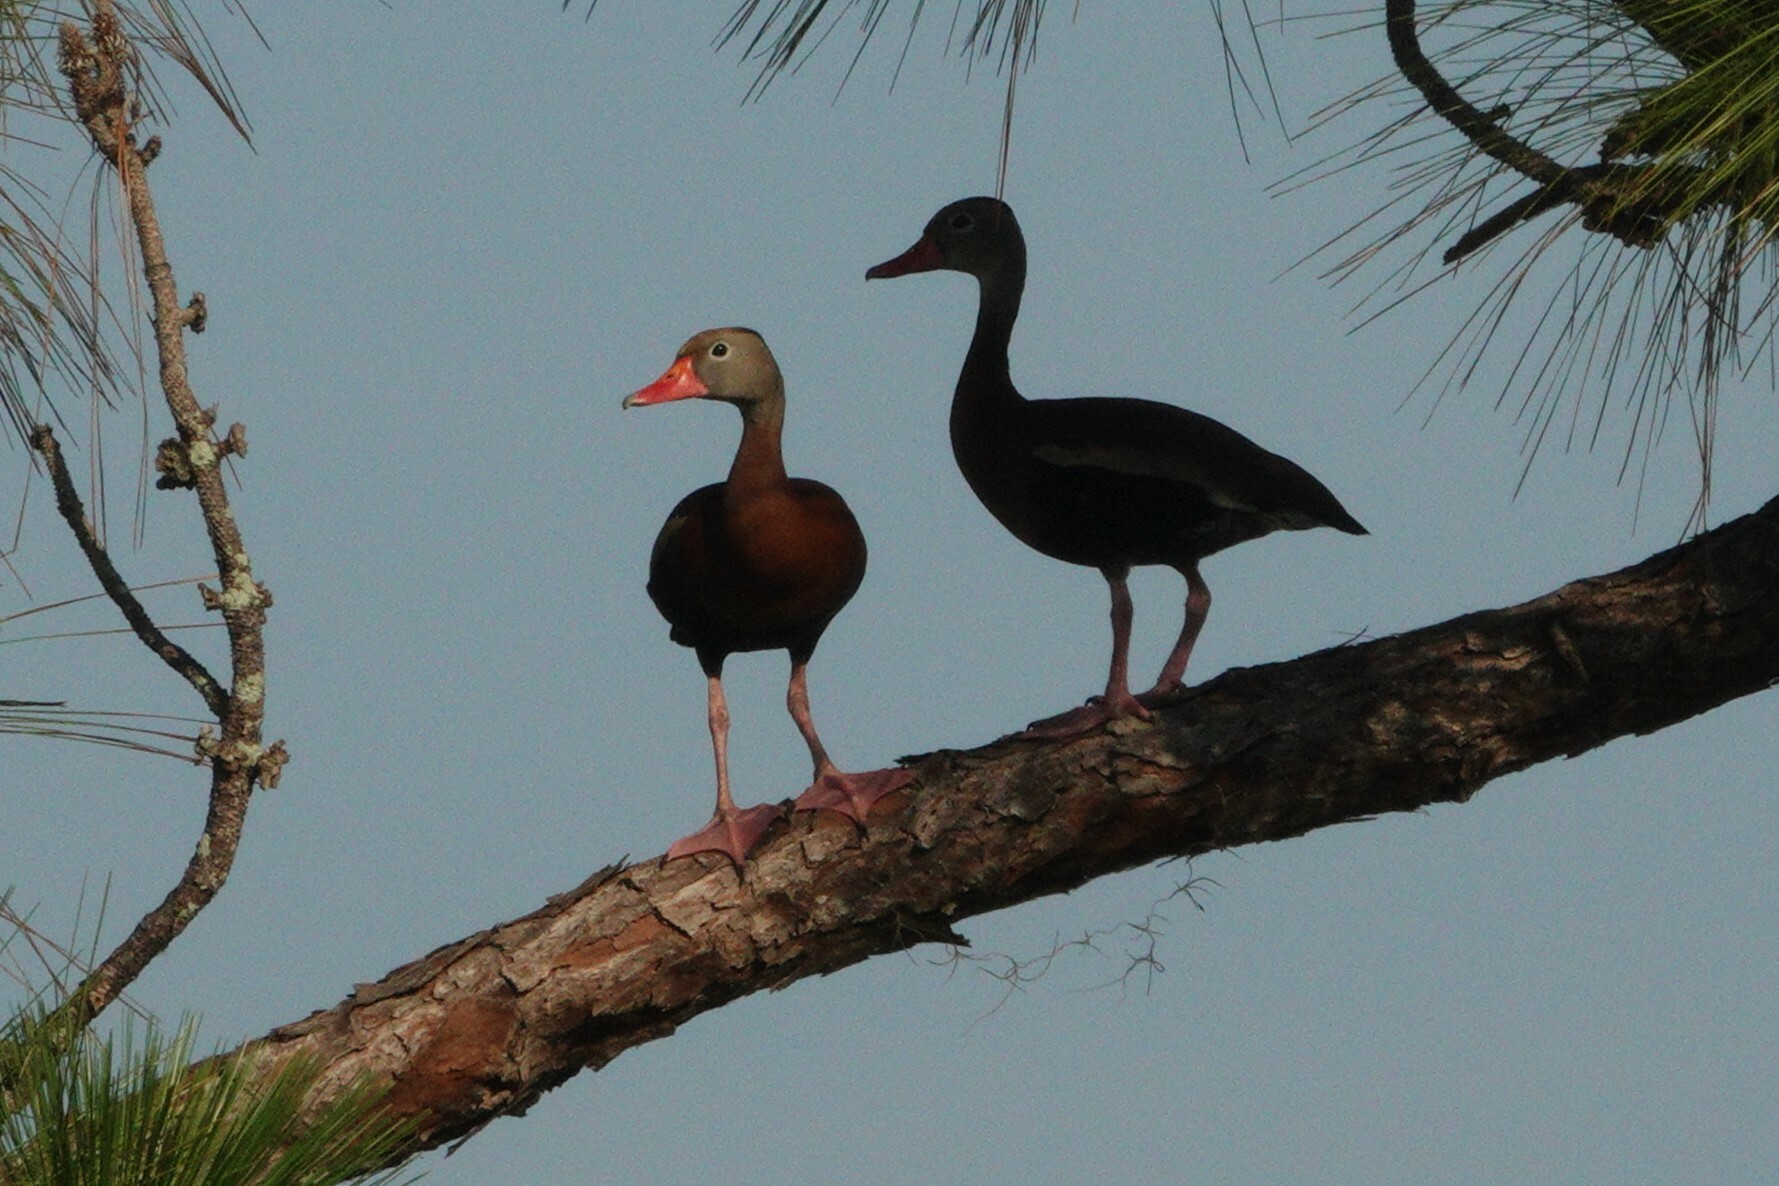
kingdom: Animalia
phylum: Chordata
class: Aves
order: Anseriformes
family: Anatidae
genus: Dendrocygna
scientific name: Dendrocygna autumnalis
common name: Black-bellied whistling duck
